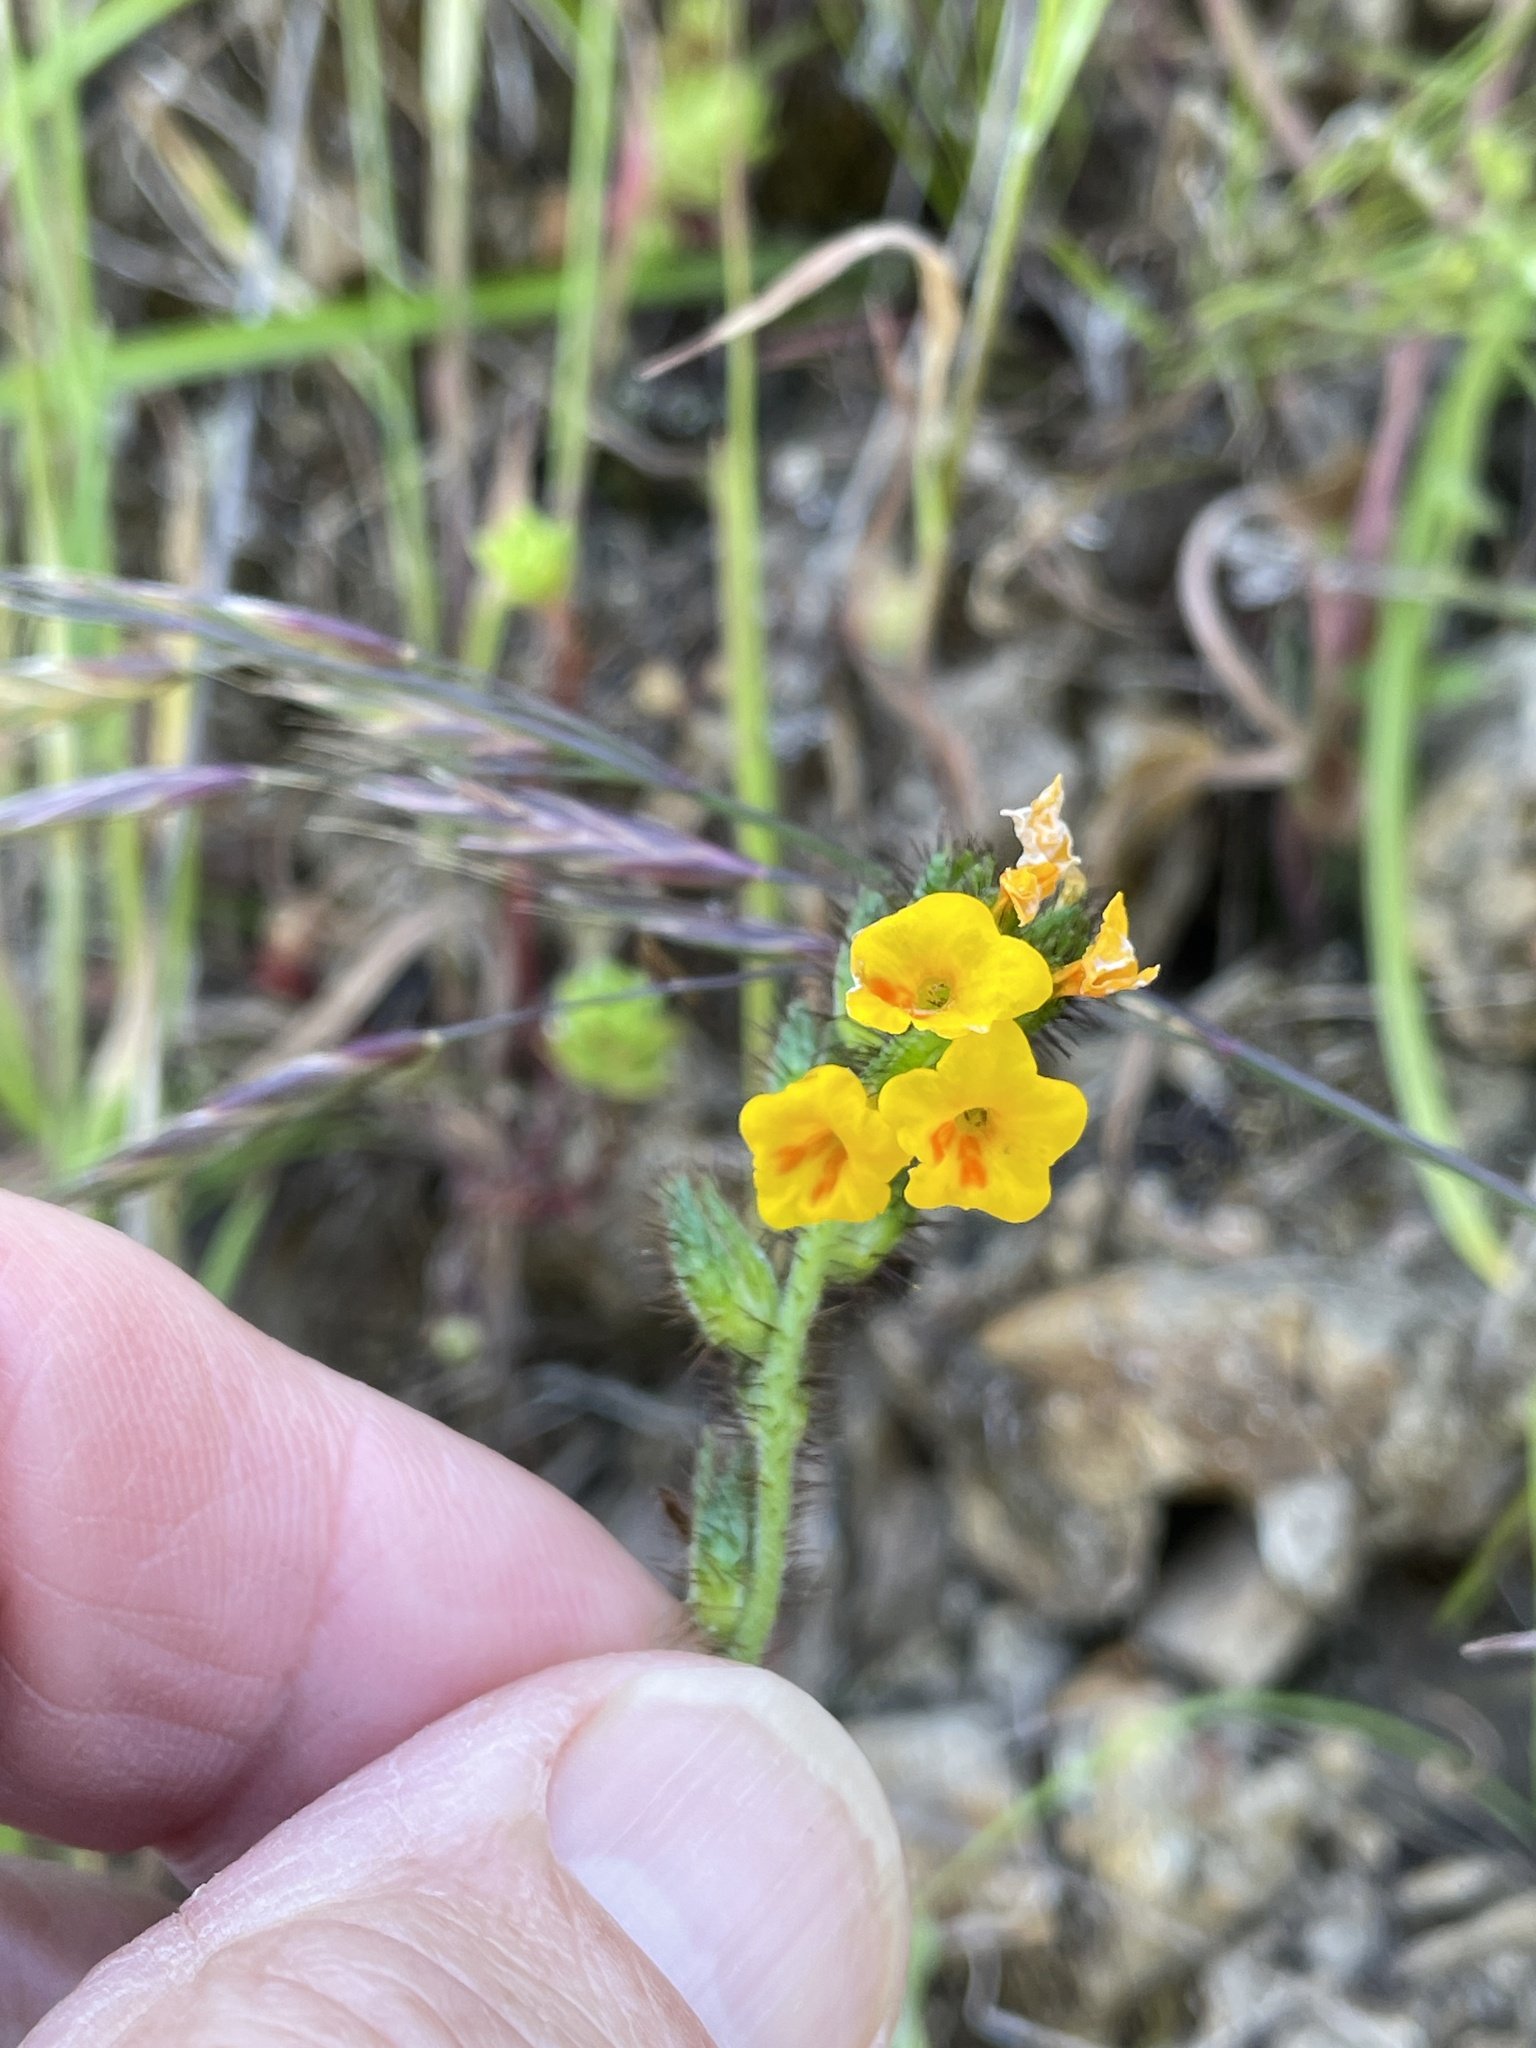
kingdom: Plantae
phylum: Tracheophyta
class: Magnoliopsida
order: Boraginales
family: Boraginaceae
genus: Amsinckia
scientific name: Amsinckia lunaris
